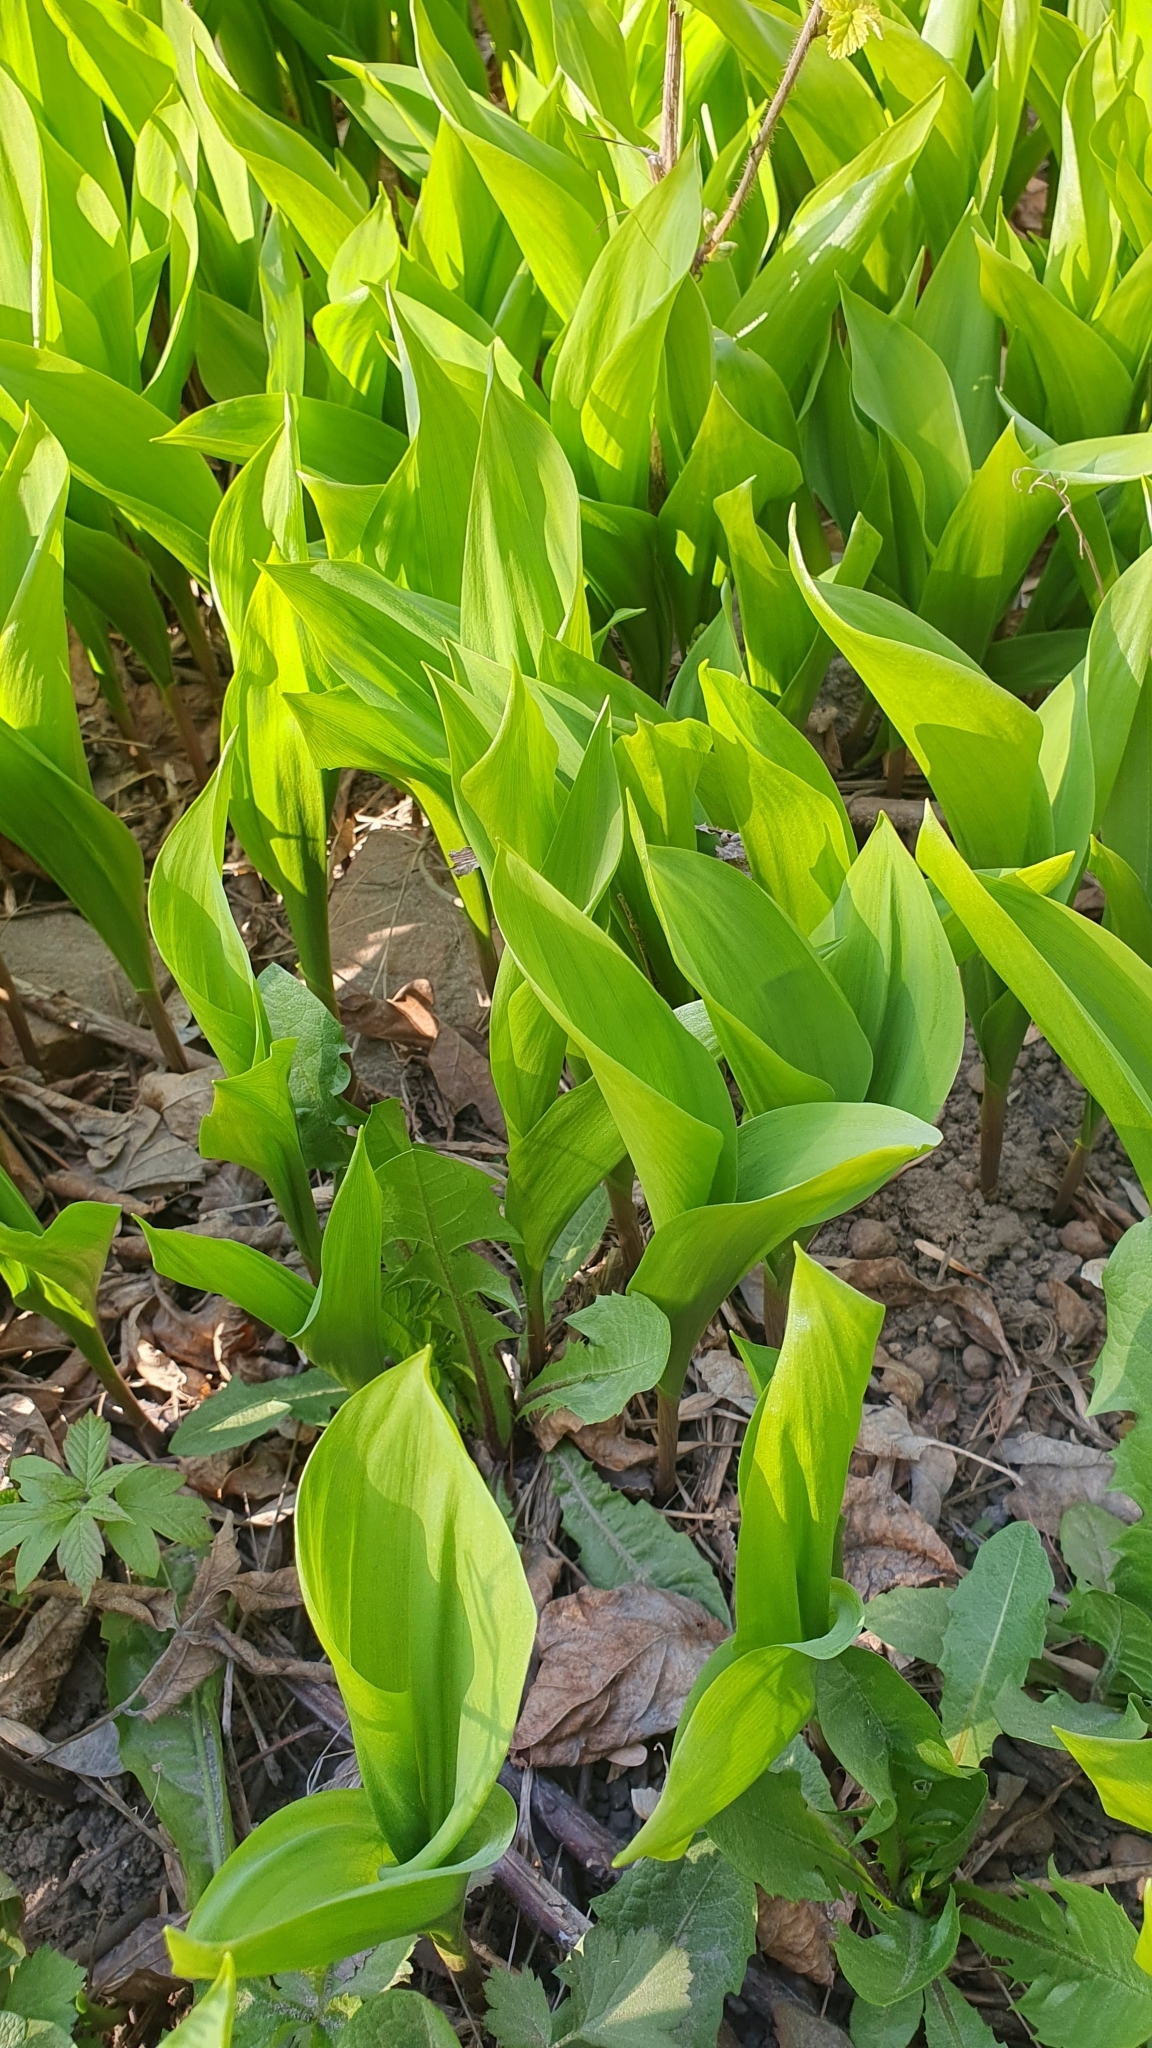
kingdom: Plantae
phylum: Tracheophyta
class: Liliopsida
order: Asparagales
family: Asparagaceae
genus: Convallaria
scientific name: Convallaria majalis
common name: Lily-of-the-valley
